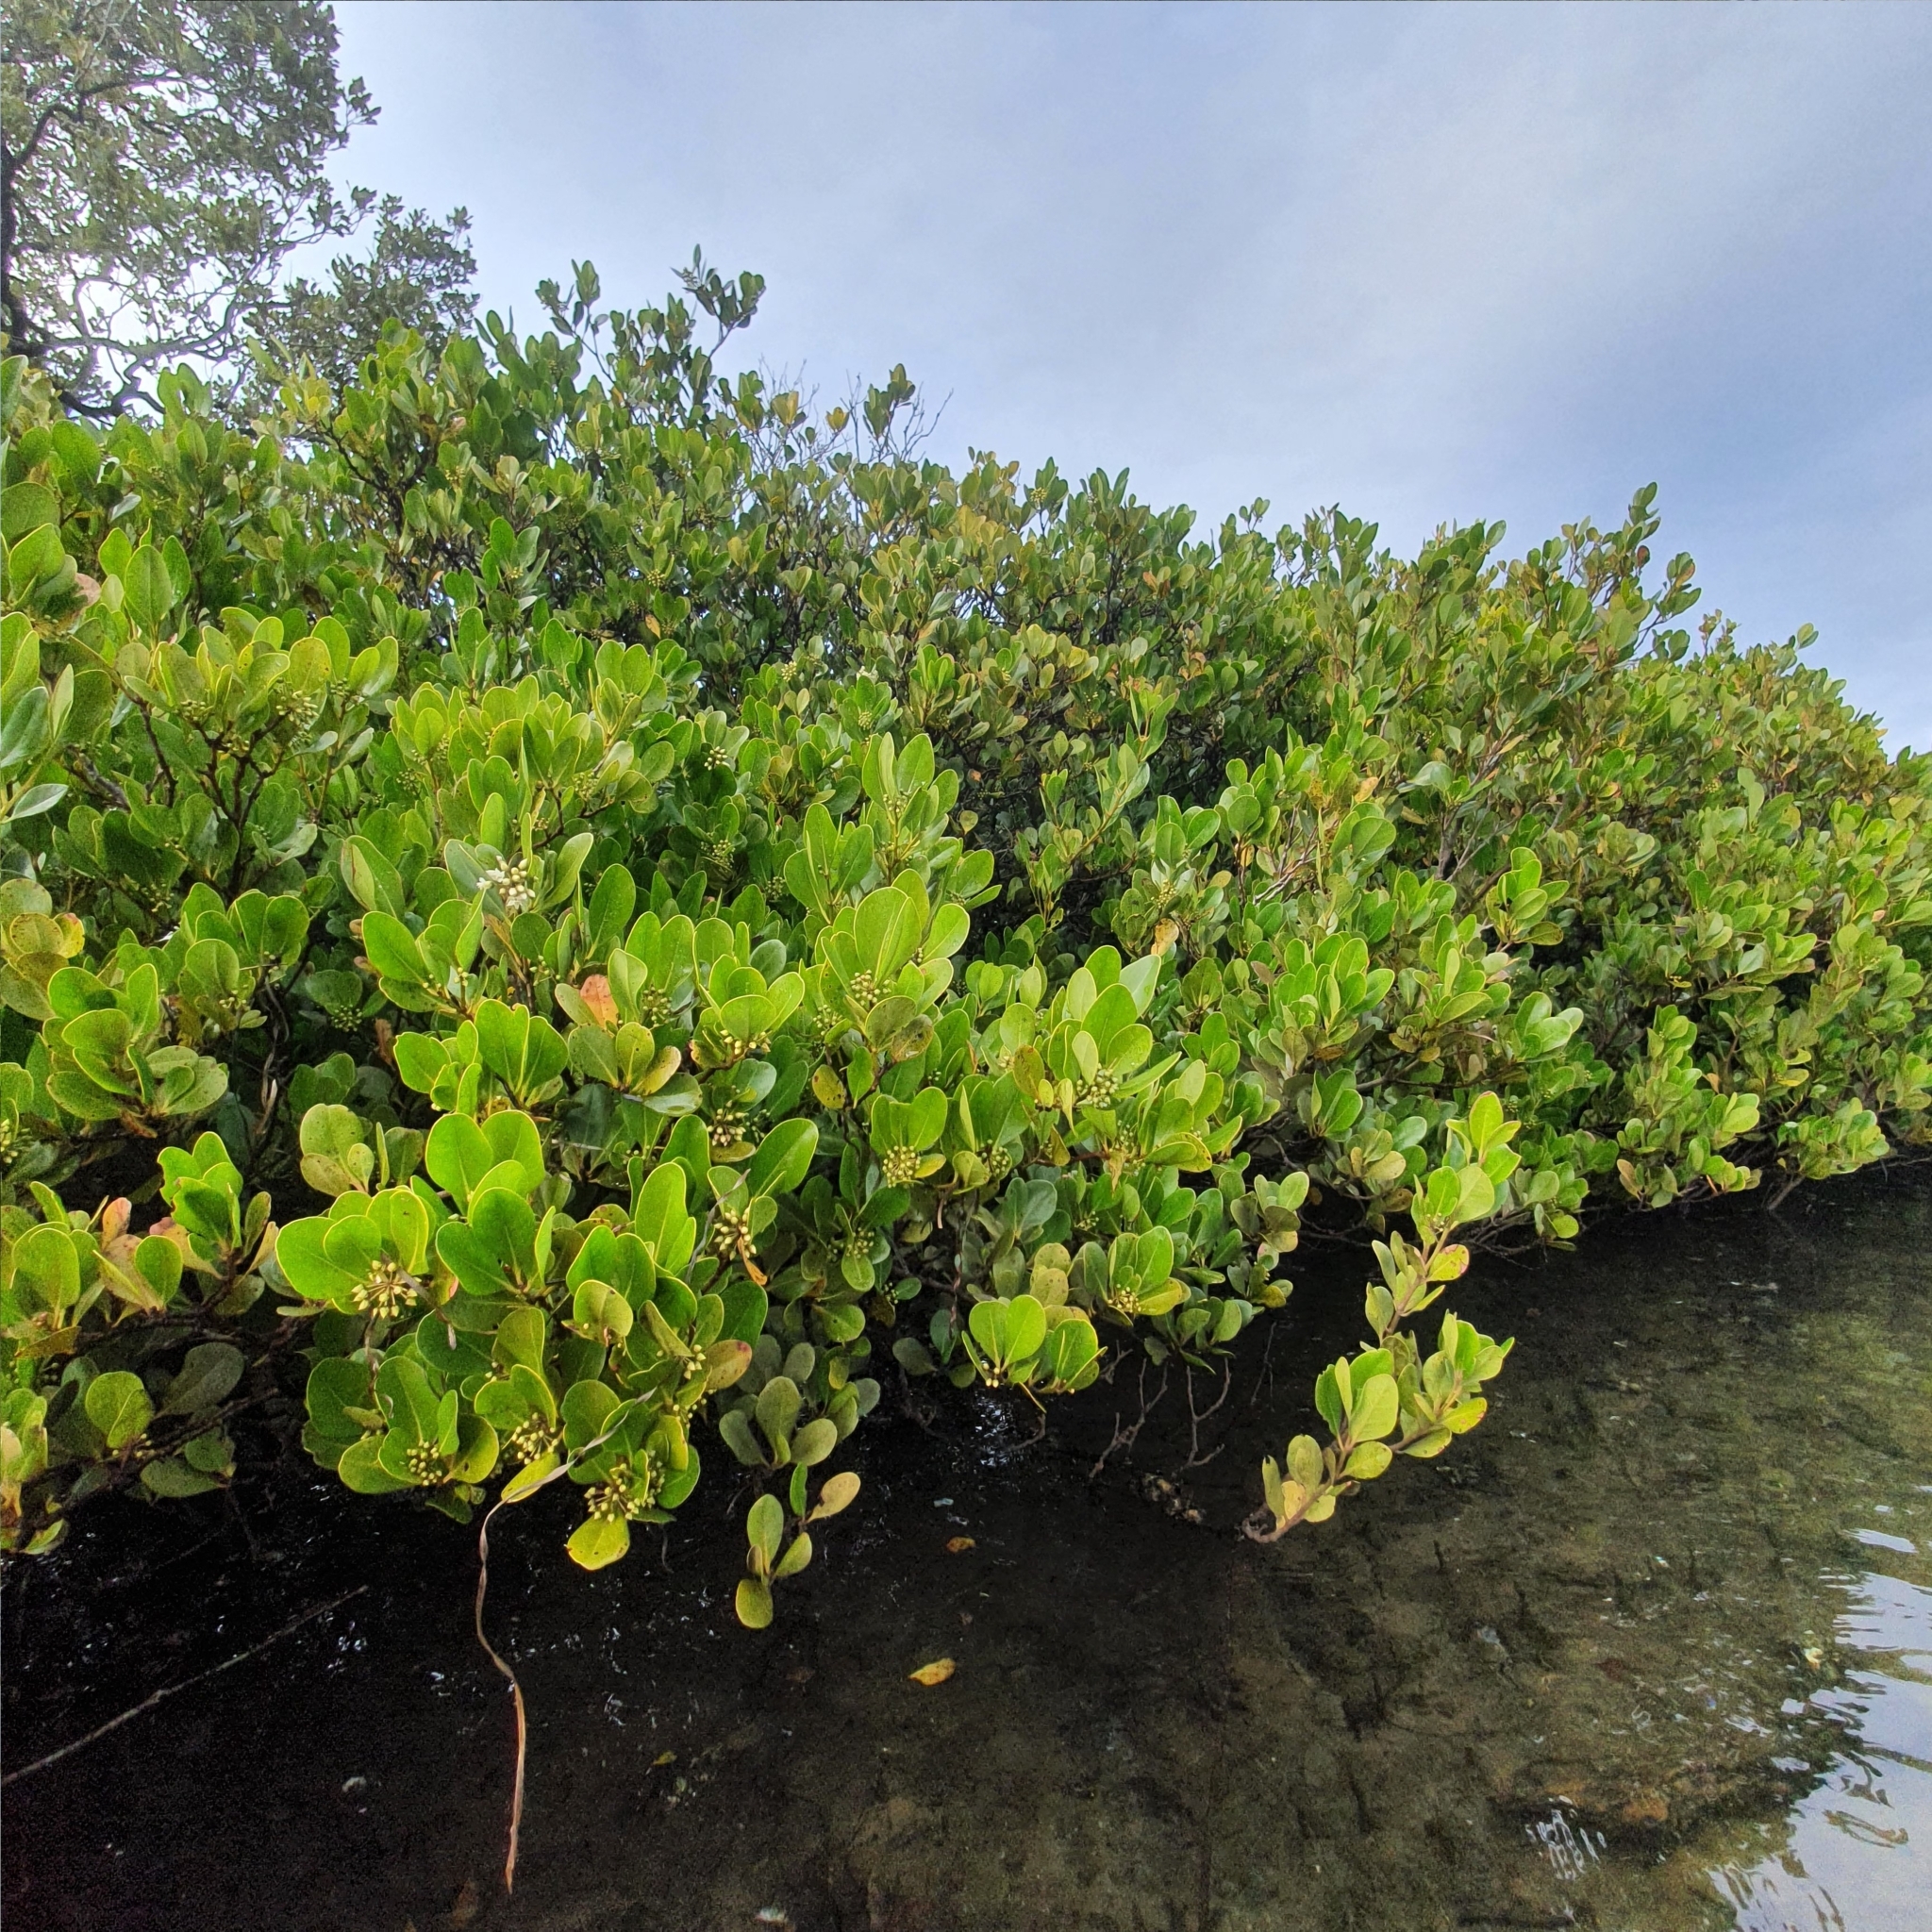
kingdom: Plantae
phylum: Tracheophyta
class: Magnoliopsida
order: Ericales
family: Primulaceae
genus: Aegiceras
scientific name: Aegiceras corniculatum
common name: River mangrove
